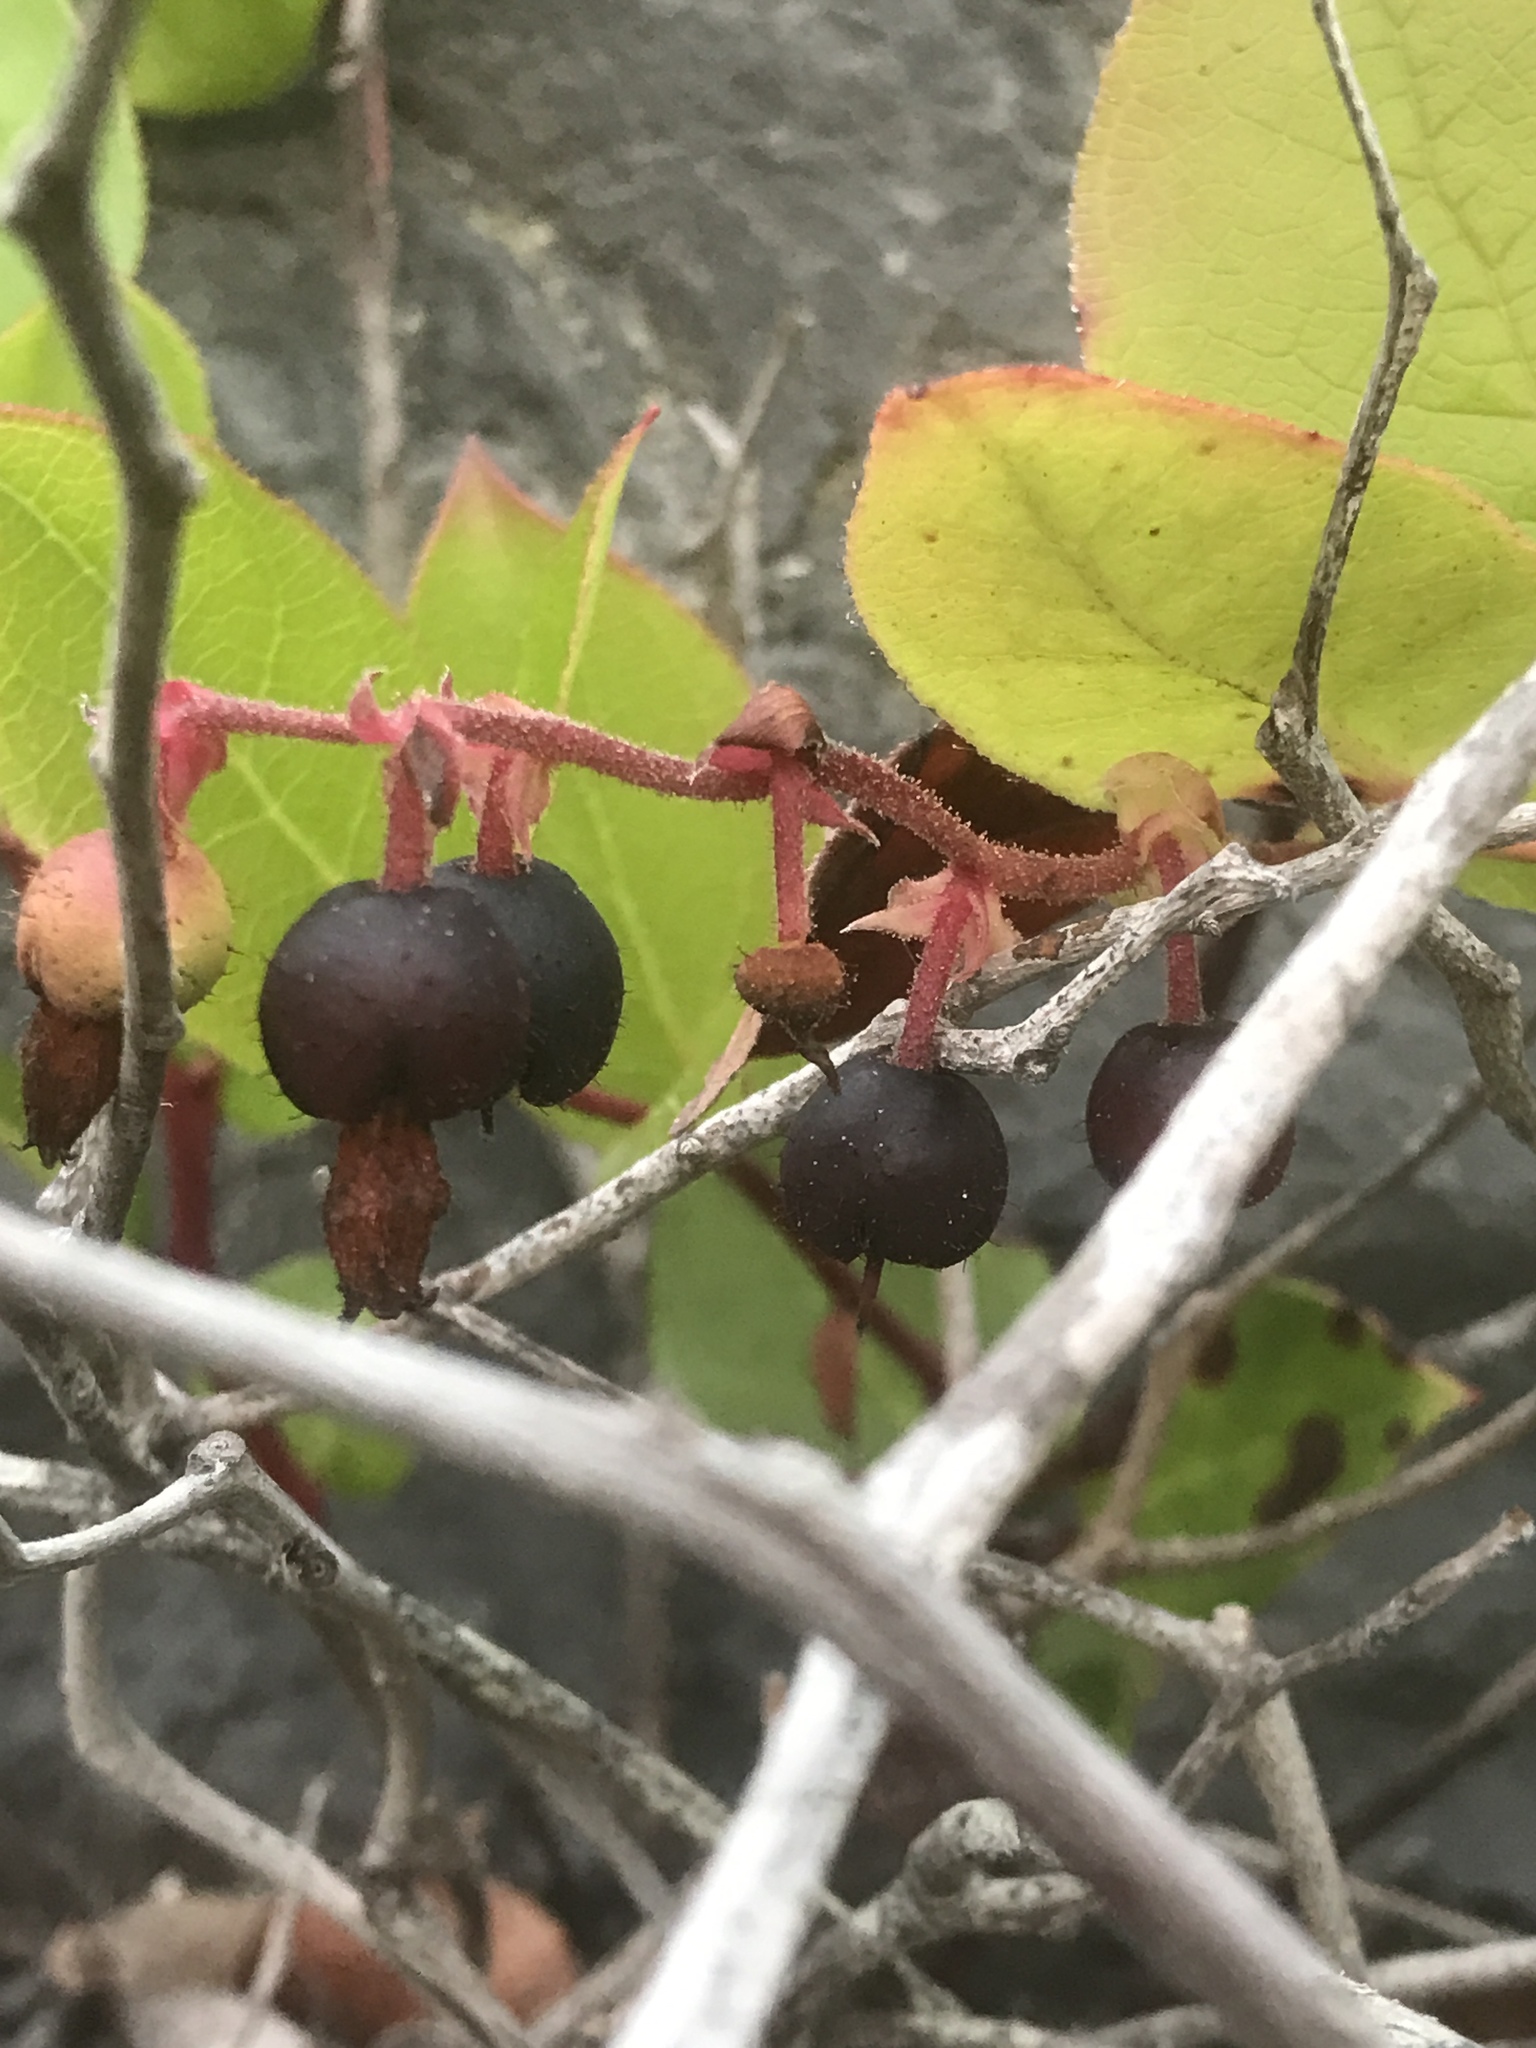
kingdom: Plantae
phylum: Tracheophyta
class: Magnoliopsida
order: Ericales
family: Ericaceae
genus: Gaultheria
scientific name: Gaultheria shallon
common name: Shallon
